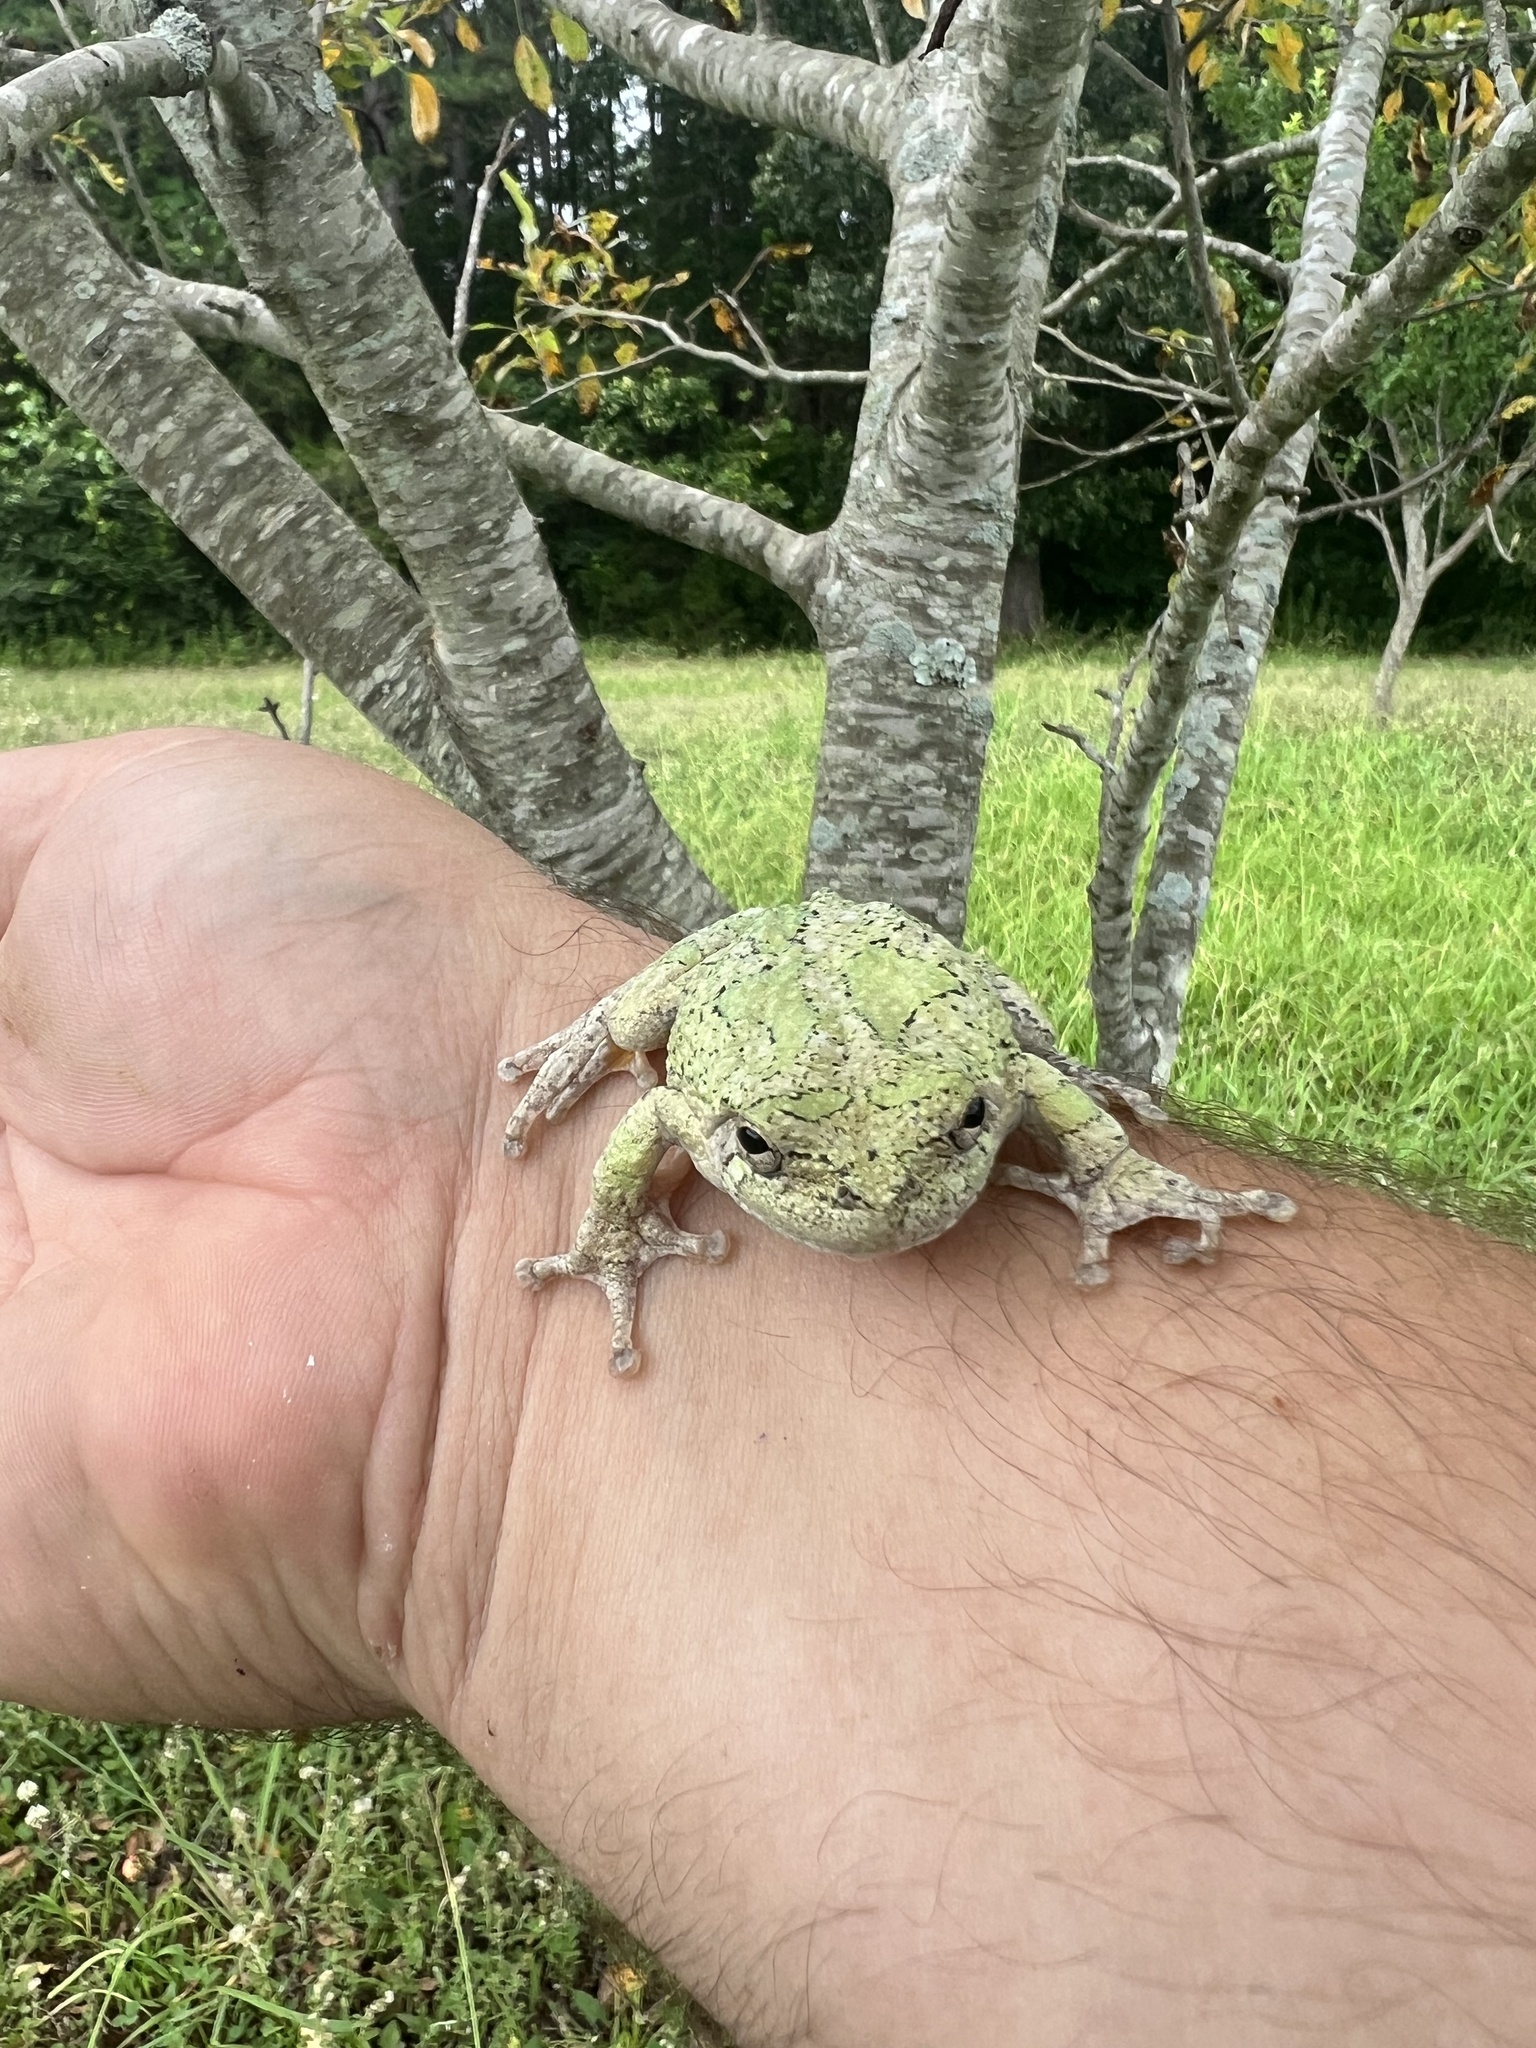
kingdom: Animalia
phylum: Chordata
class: Amphibia
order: Anura
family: Hylidae
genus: Dryophytes
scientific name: Dryophytes chrysoscelis
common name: Cope's gray treefrog
